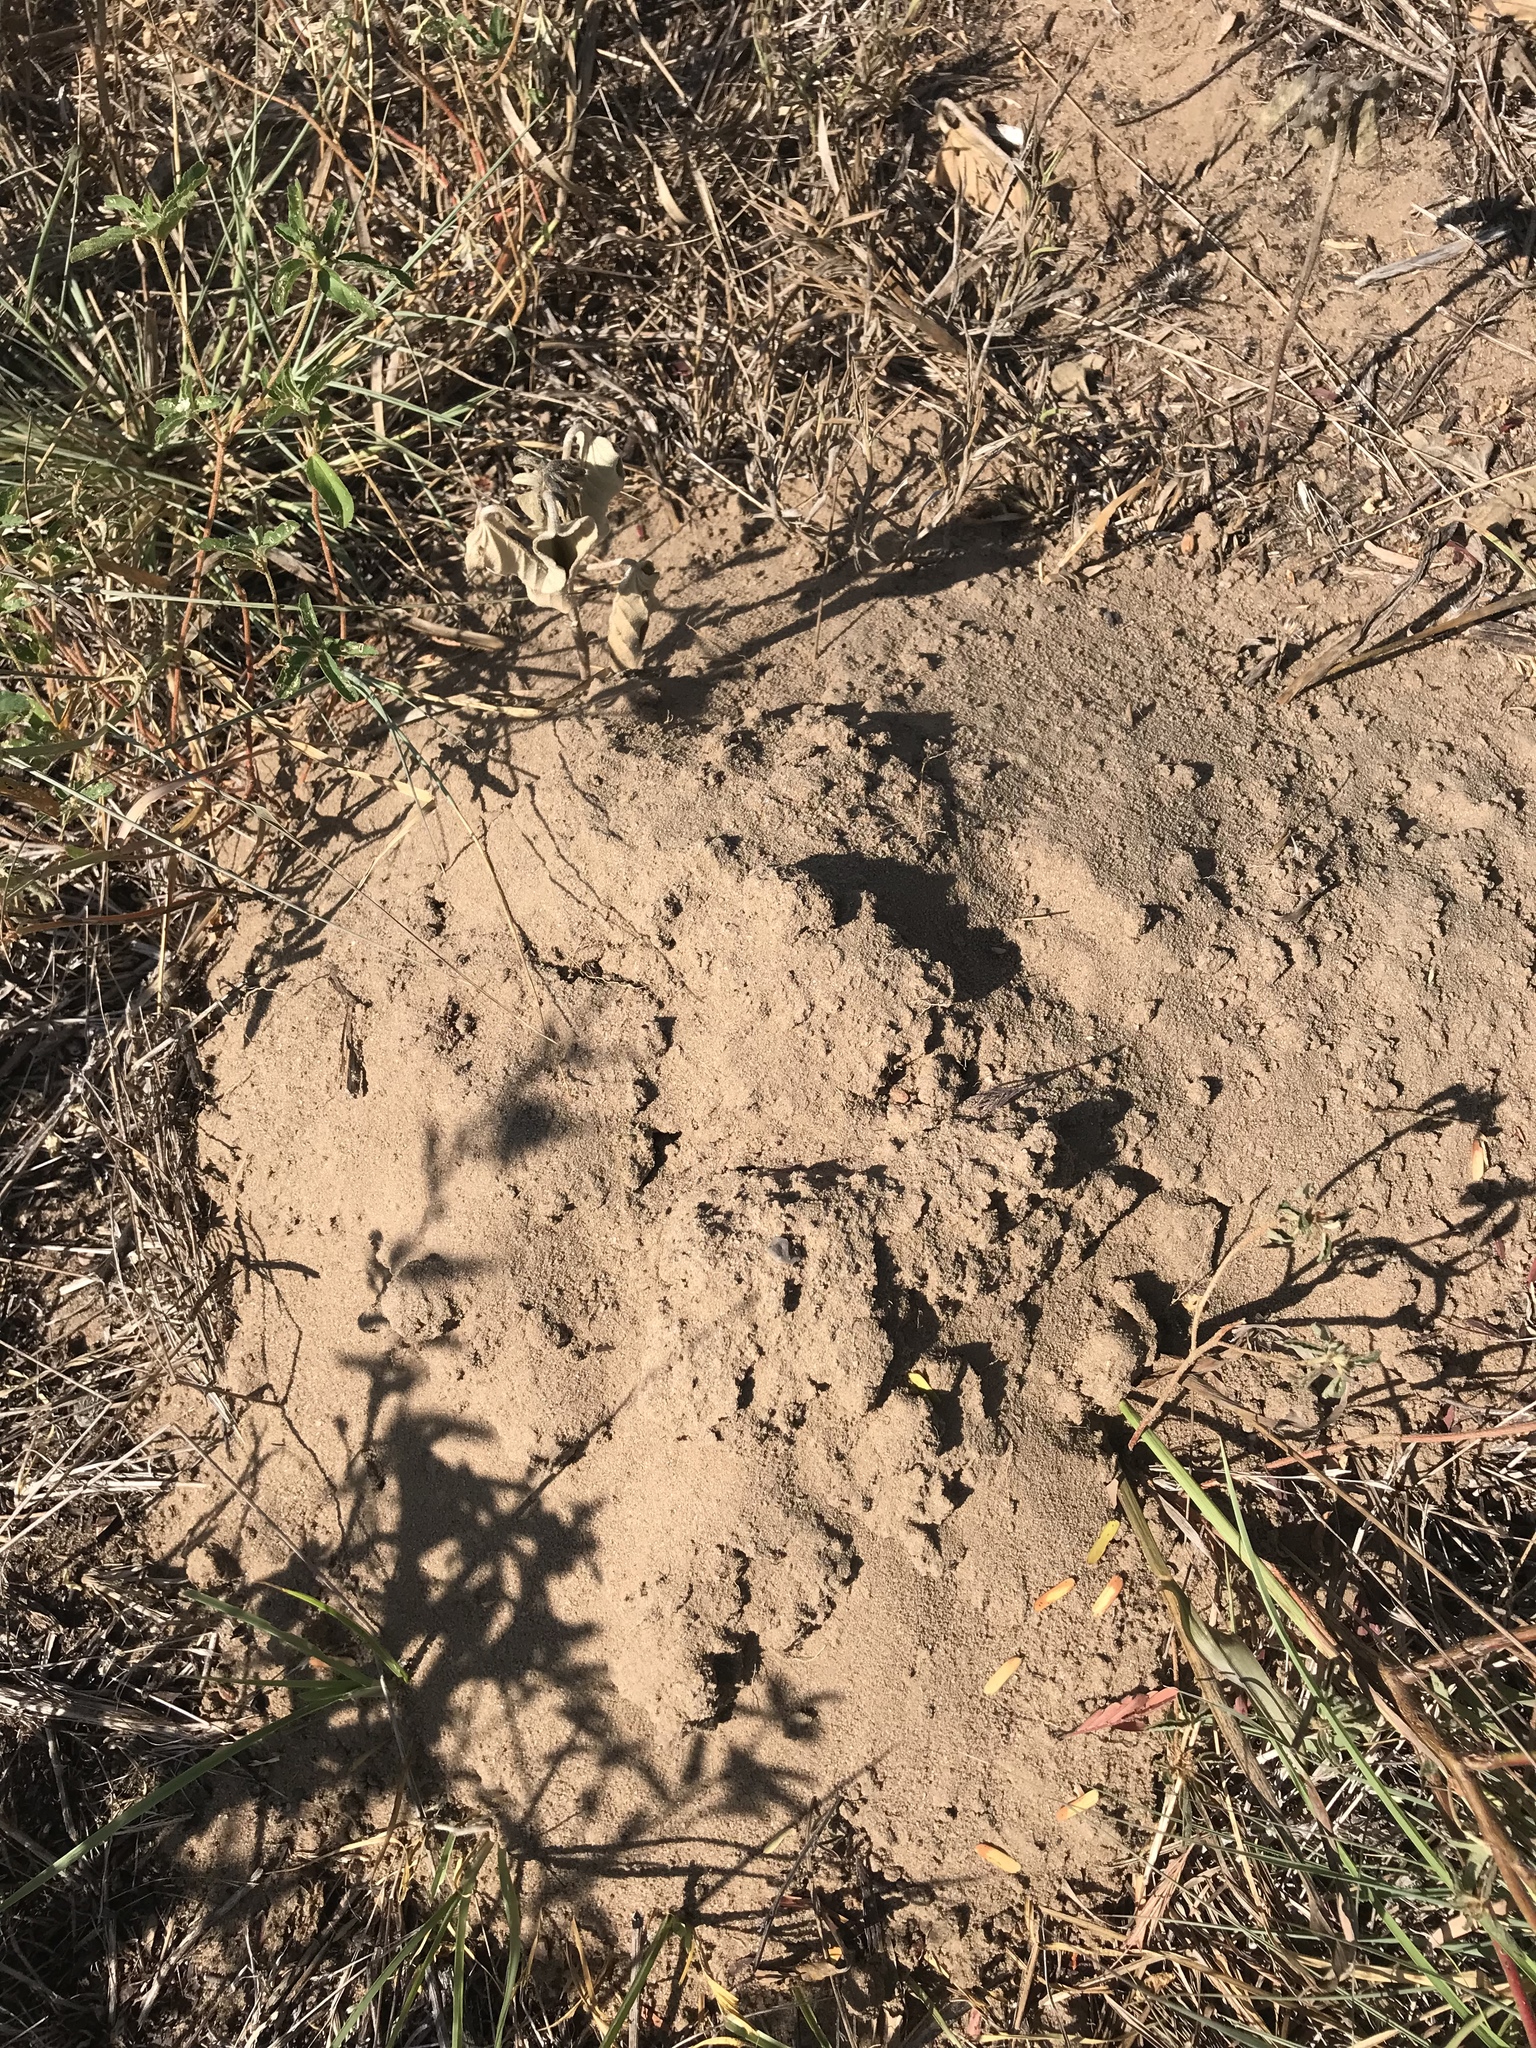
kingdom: Animalia
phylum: Chordata
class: Mammalia
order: Rodentia
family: Geomyidae
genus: Geomys
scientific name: Geomys attwateri
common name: Attwater's pocket gopher
